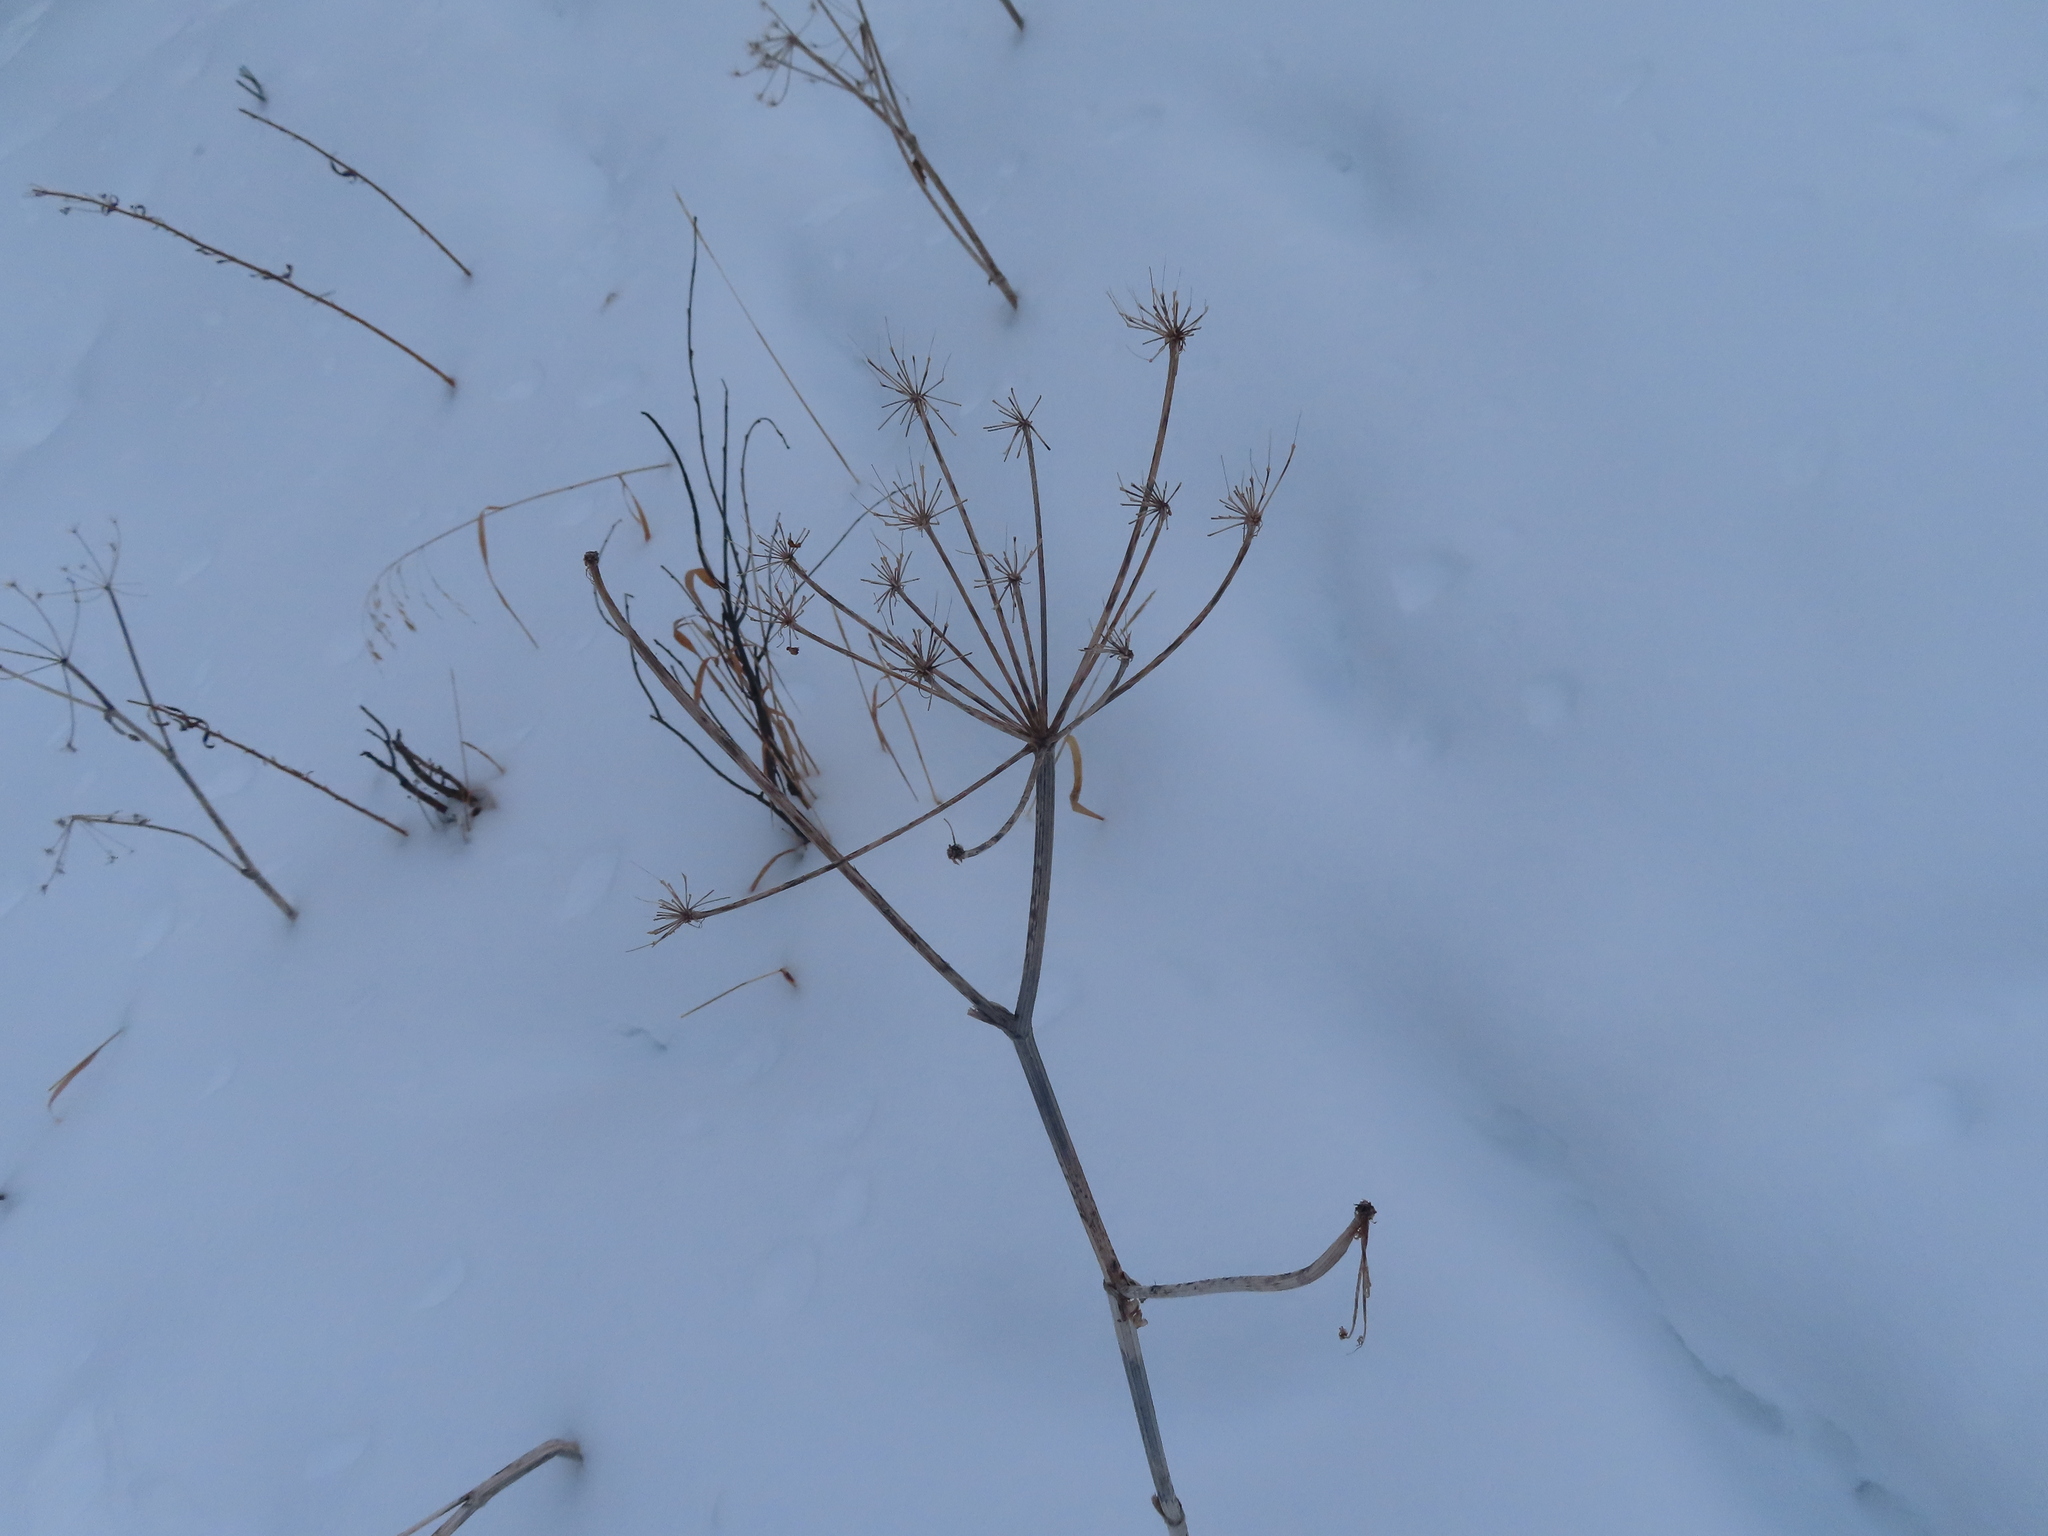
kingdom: Plantae
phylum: Tracheophyta
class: Magnoliopsida
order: Apiales
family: Apiaceae
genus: Heracleum
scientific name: Heracleum maximum
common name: American cow parsnip
